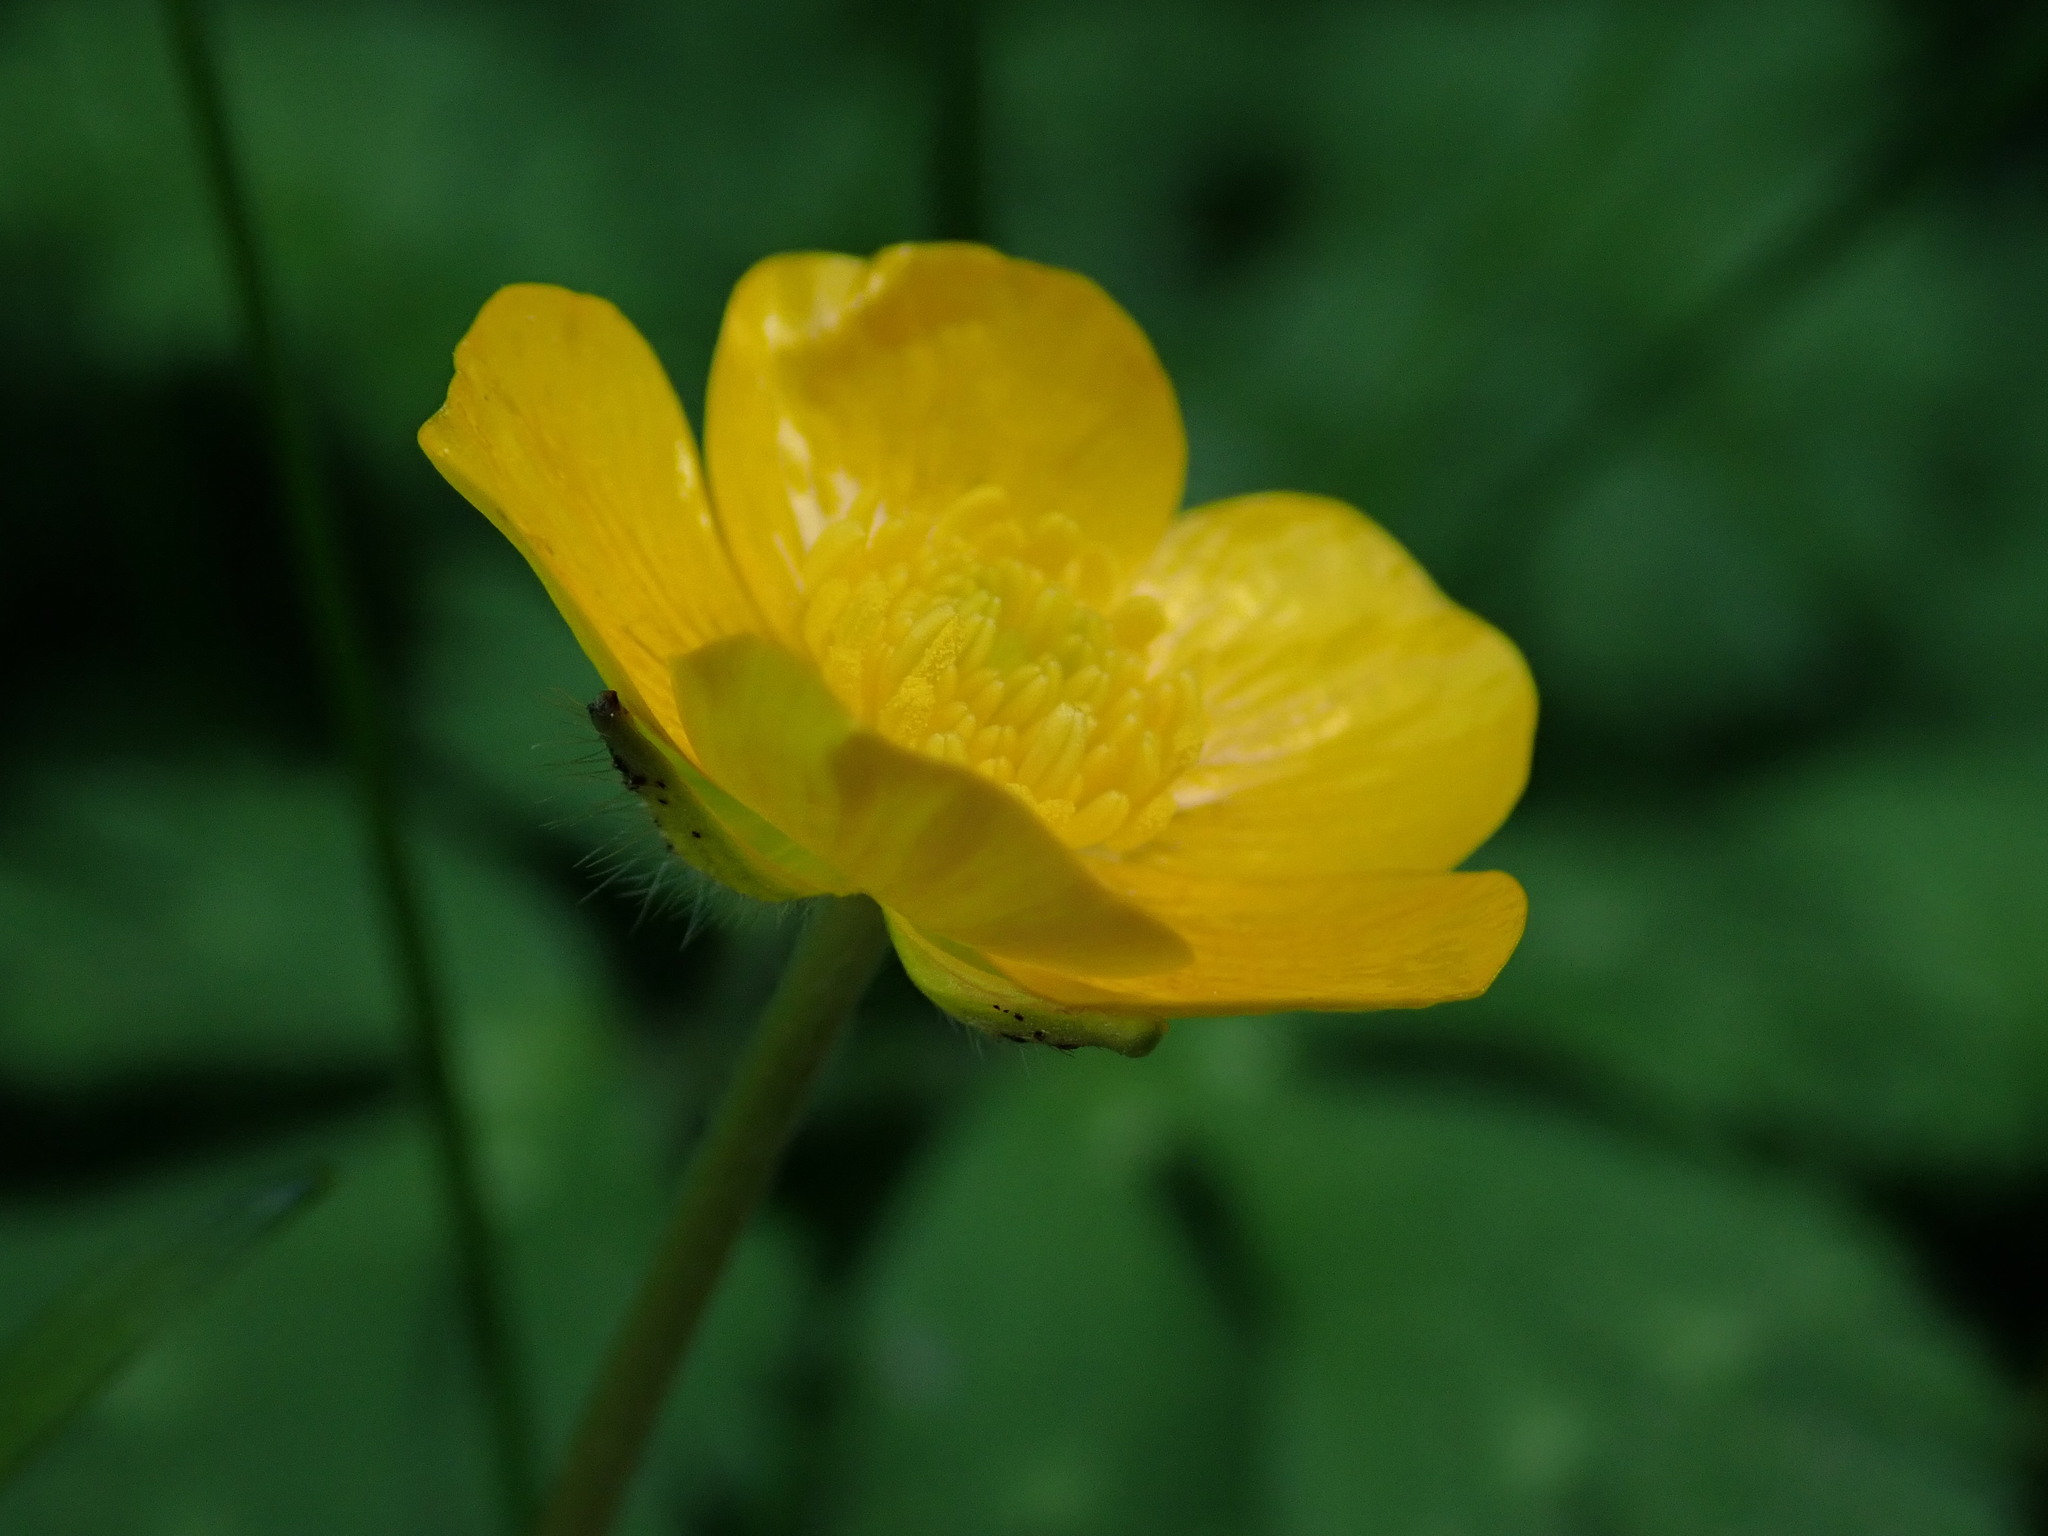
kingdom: Plantae
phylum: Tracheophyta
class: Magnoliopsida
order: Ranunculales
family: Ranunculaceae
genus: Ranunculus
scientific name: Ranunculus repens
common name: Creeping buttercup
